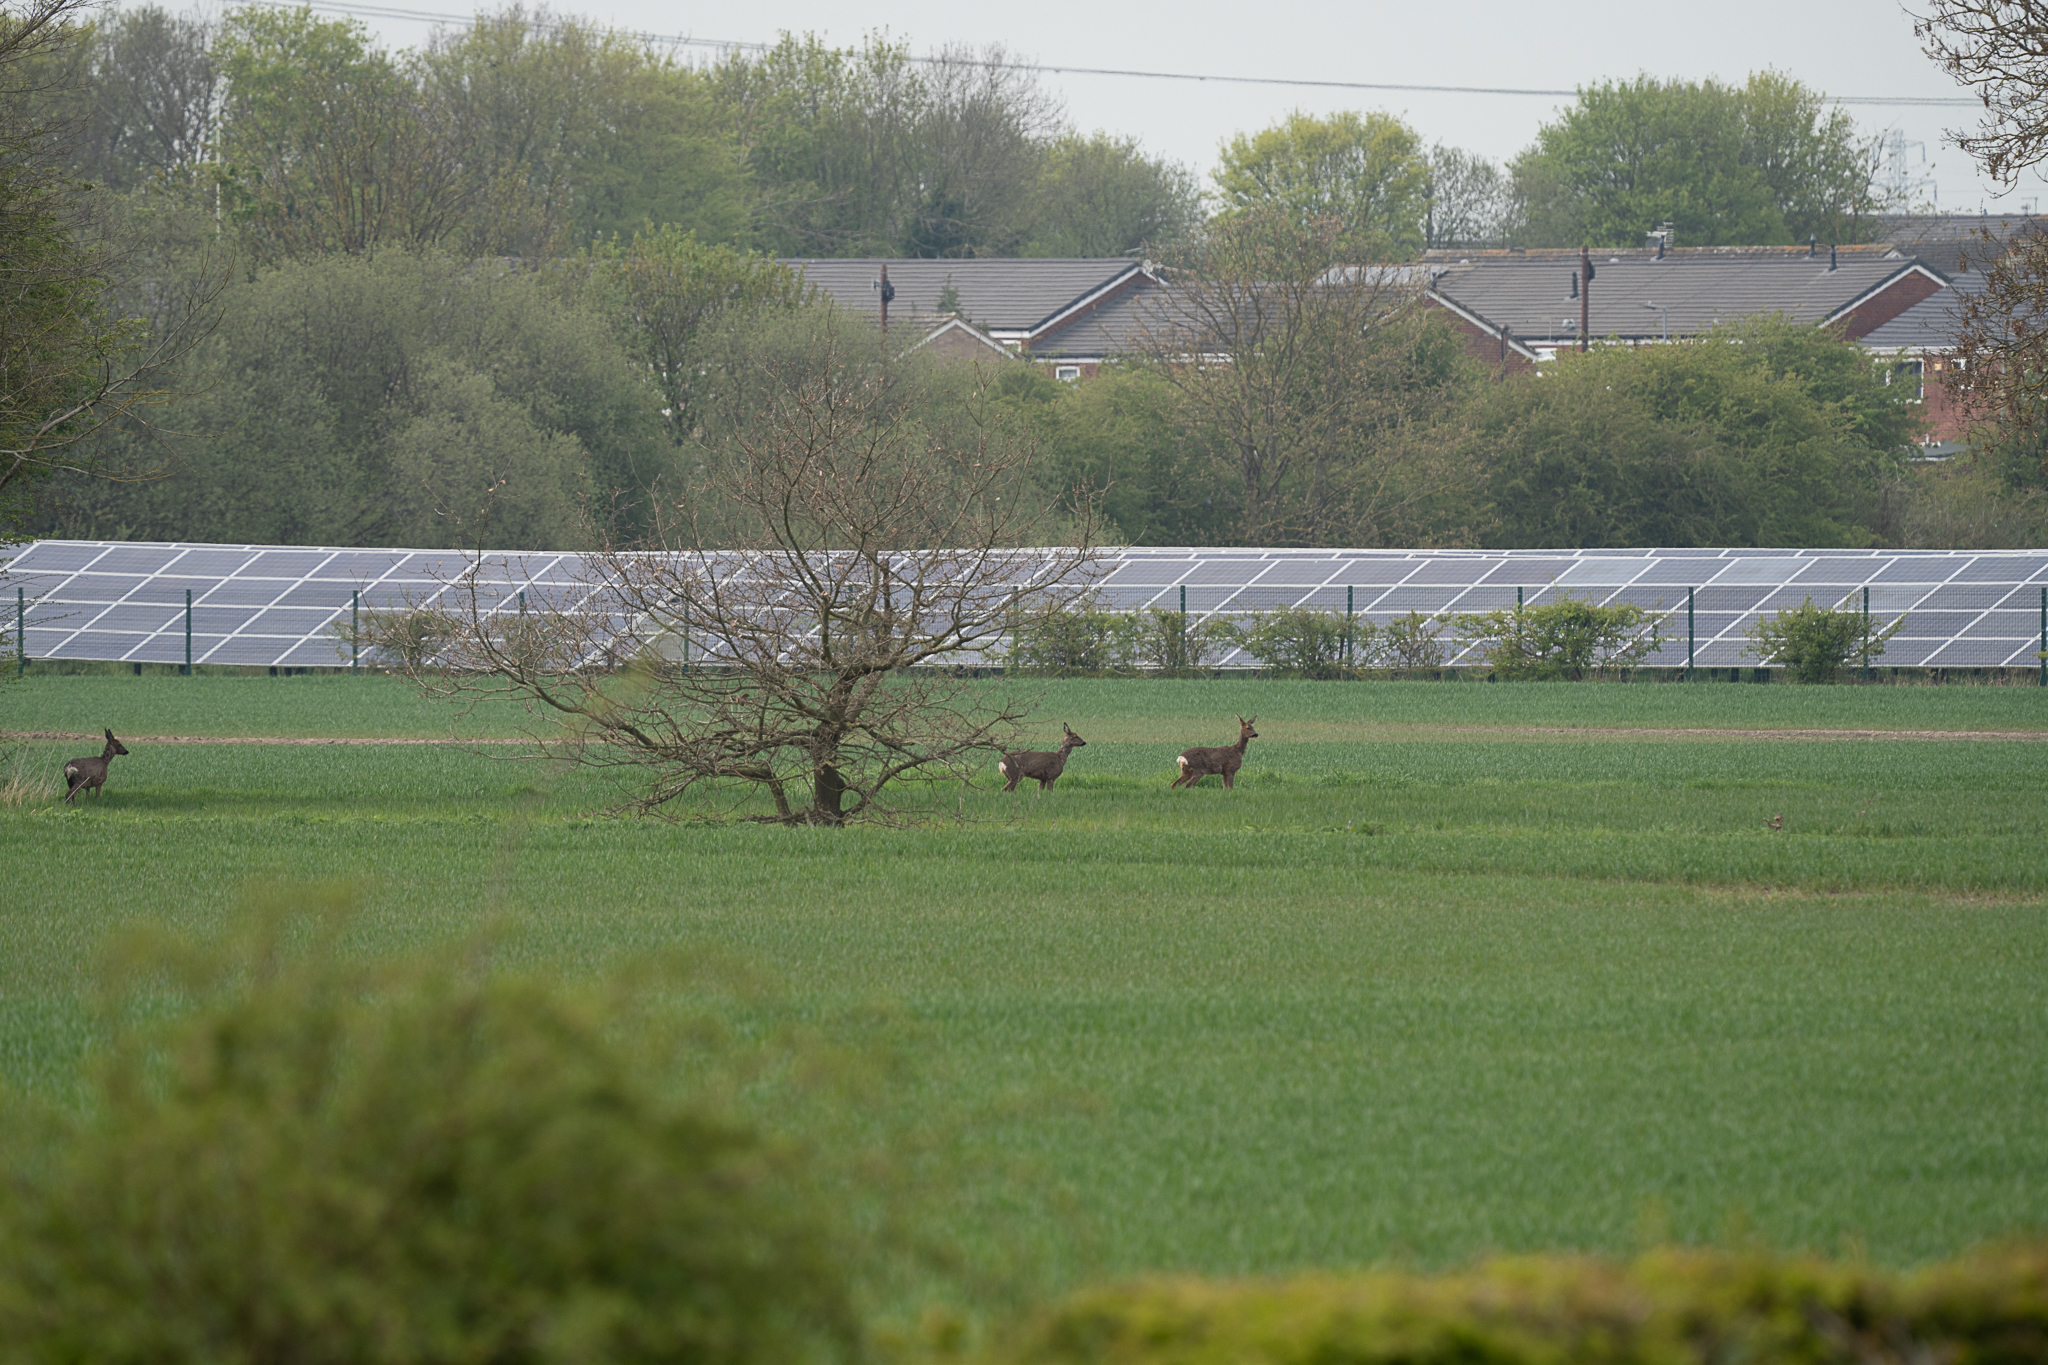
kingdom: Animalia
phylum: Chordata
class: Mammalia
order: Artiodactyla
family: Cervidae
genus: Capreolus
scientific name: Capreolus capreolus
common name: Western roe deer
